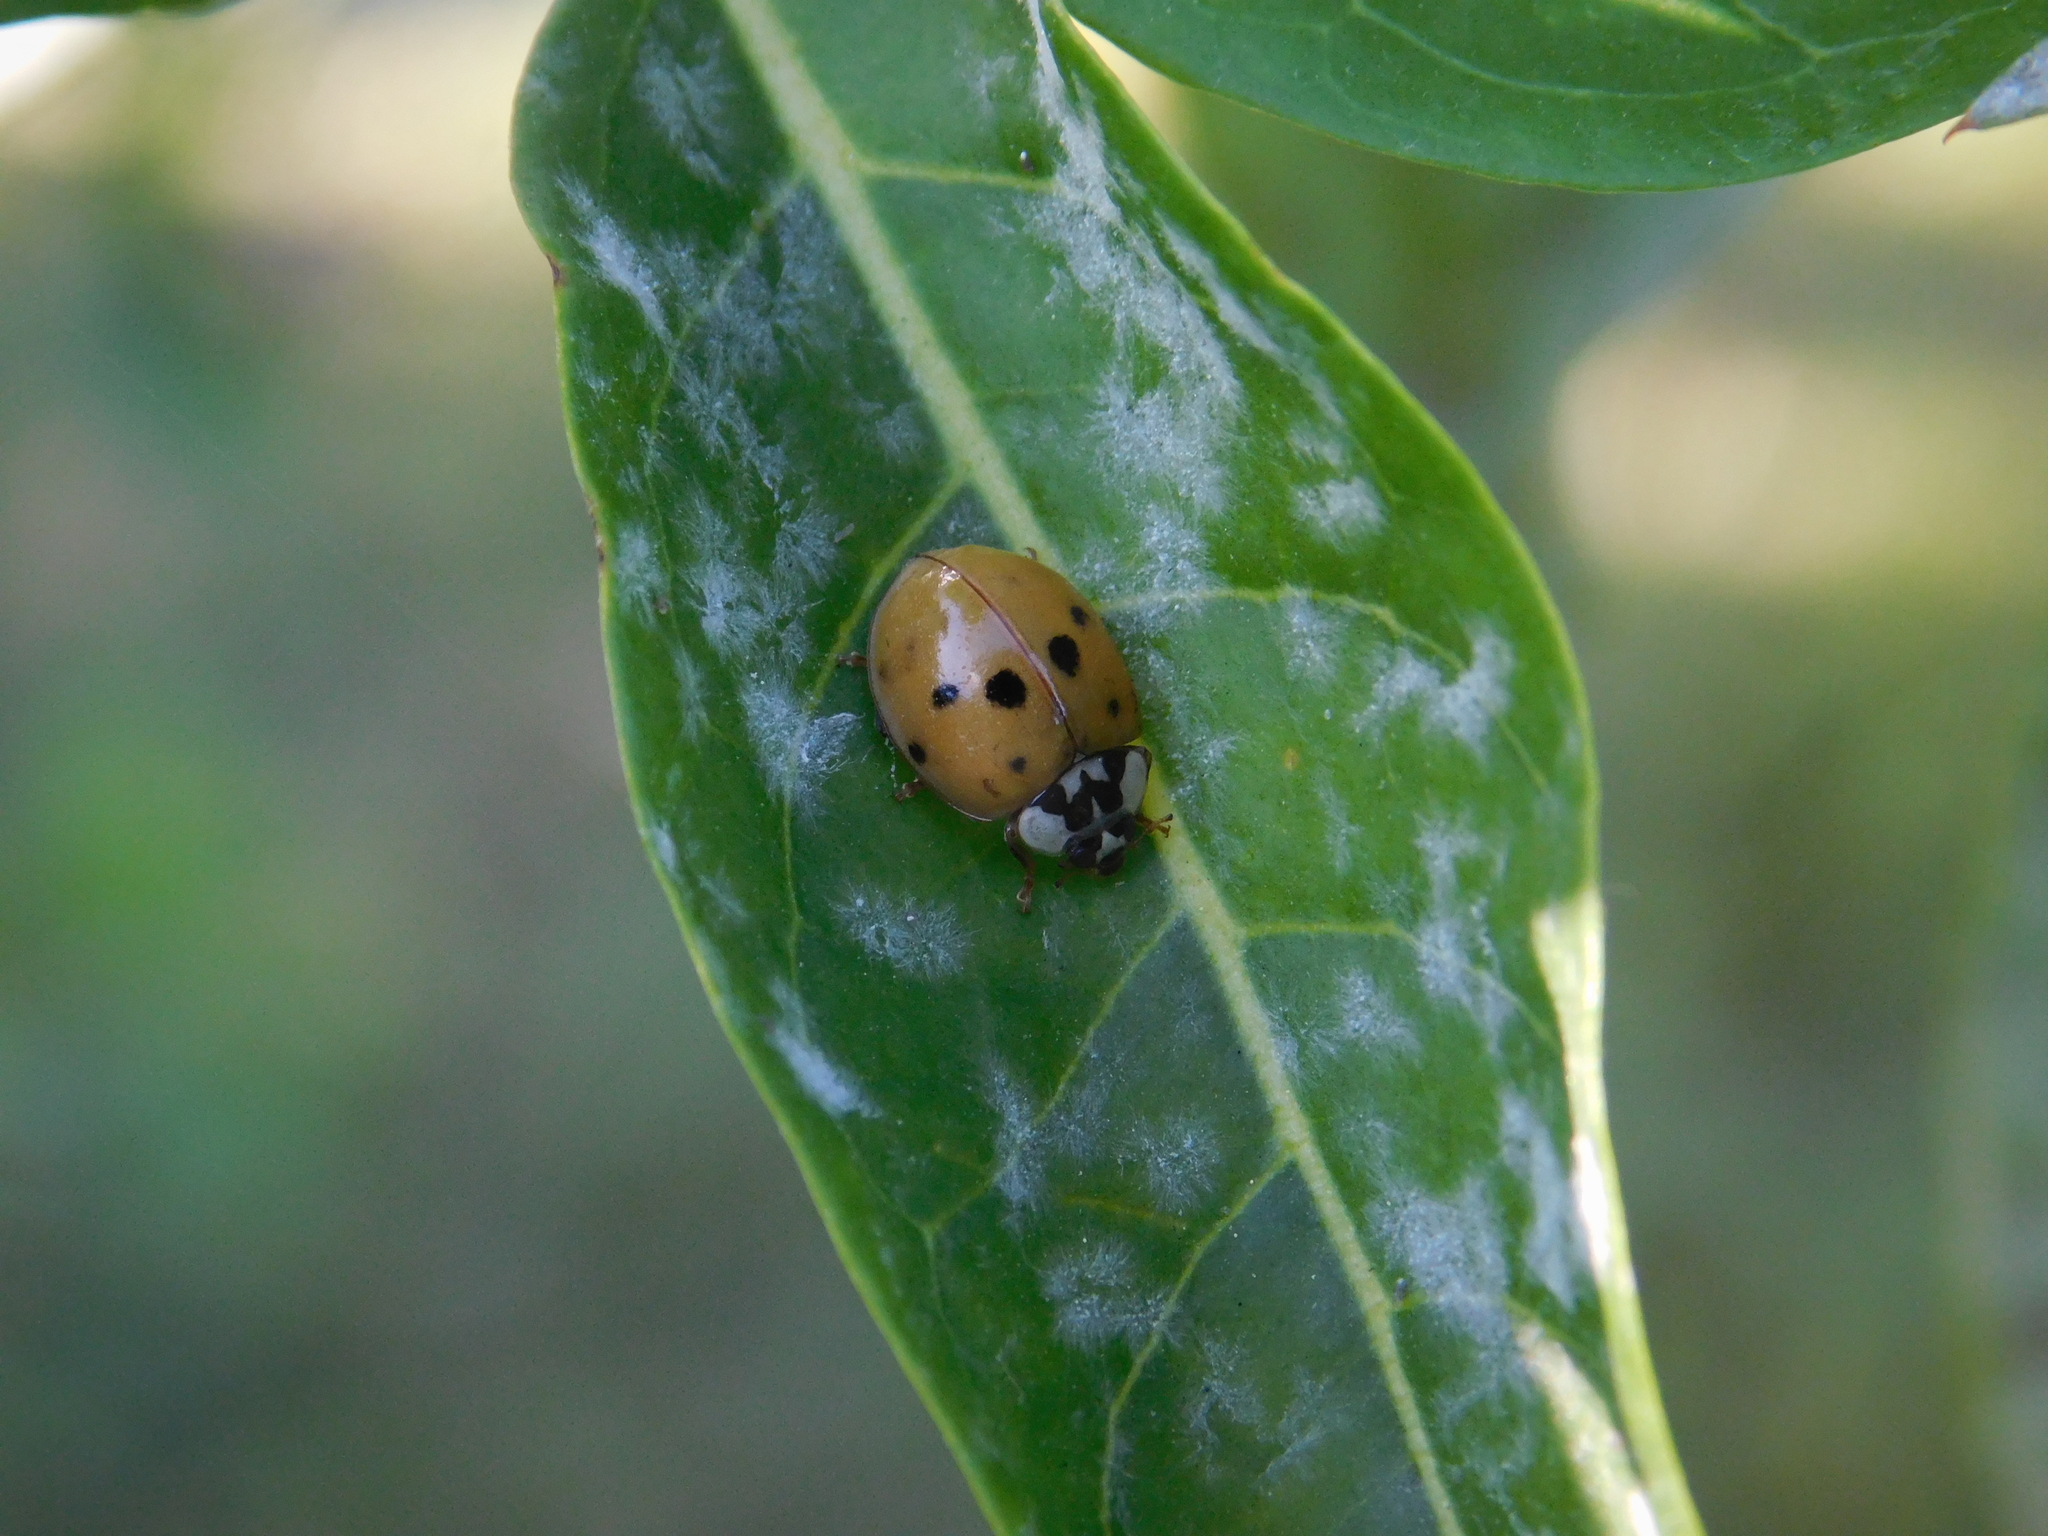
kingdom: Animalia
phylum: Arthropoda
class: Insecta
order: Coleoptera
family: Coccinellidae
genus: Harmonia
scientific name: Harmonia axyridis
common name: Harlequin ladybird
